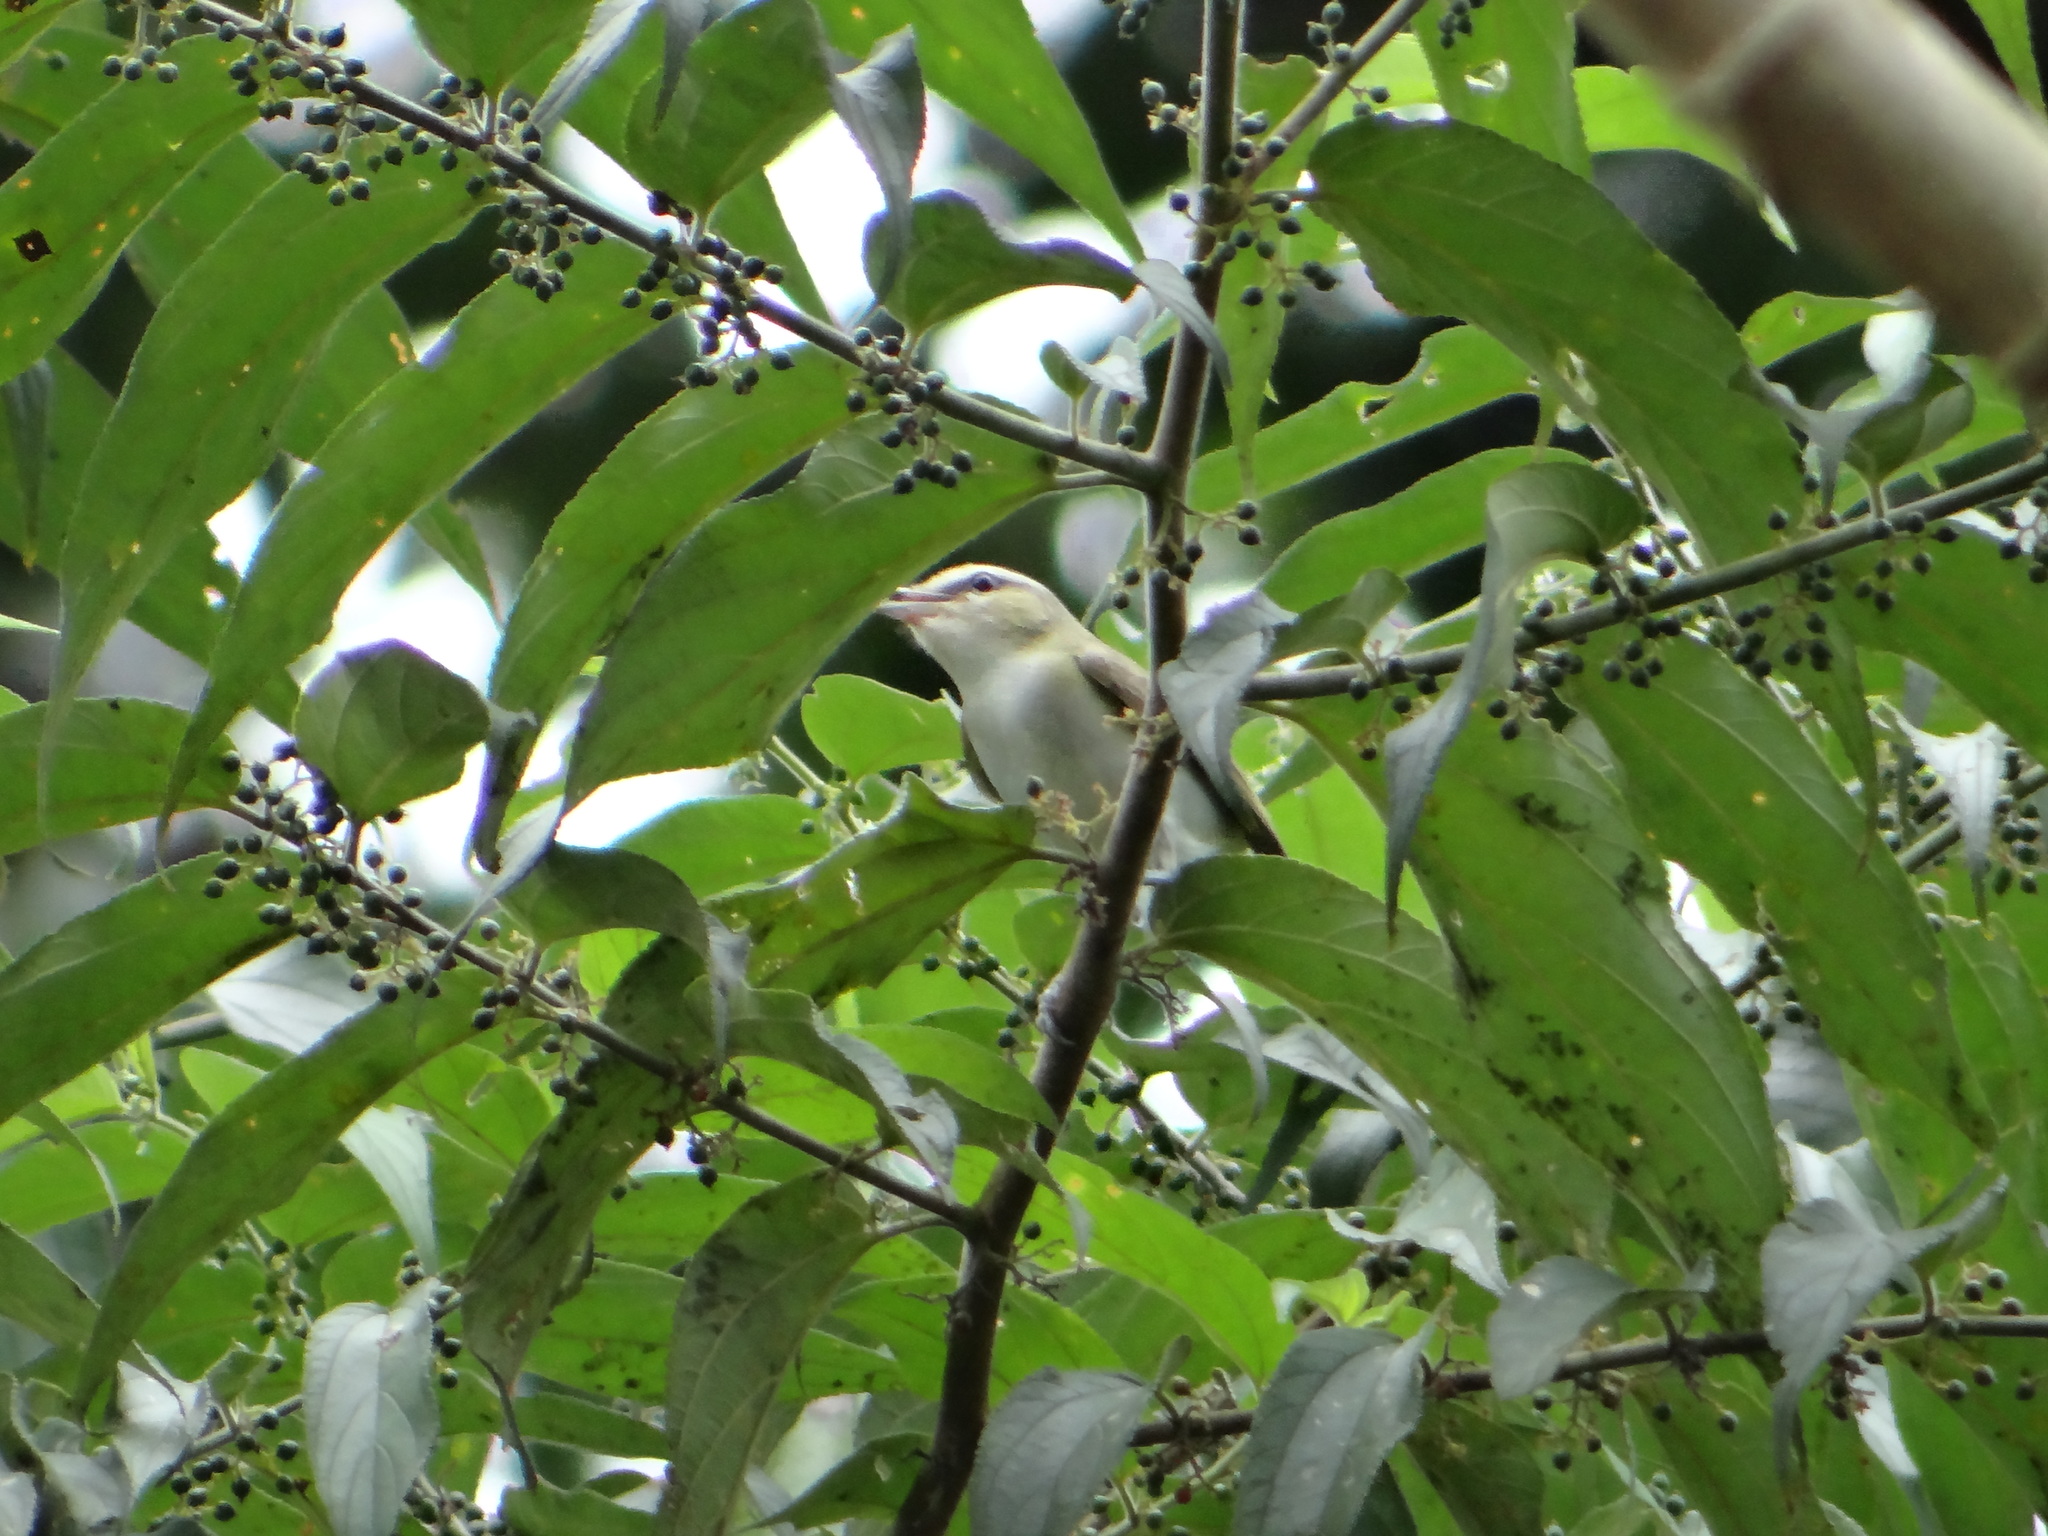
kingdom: Animalia
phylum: Chordata
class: Aves
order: Passeriformes
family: Vireonidae
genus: Vireo
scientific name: Vireo olivaceus
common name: Red-eyed vireo
